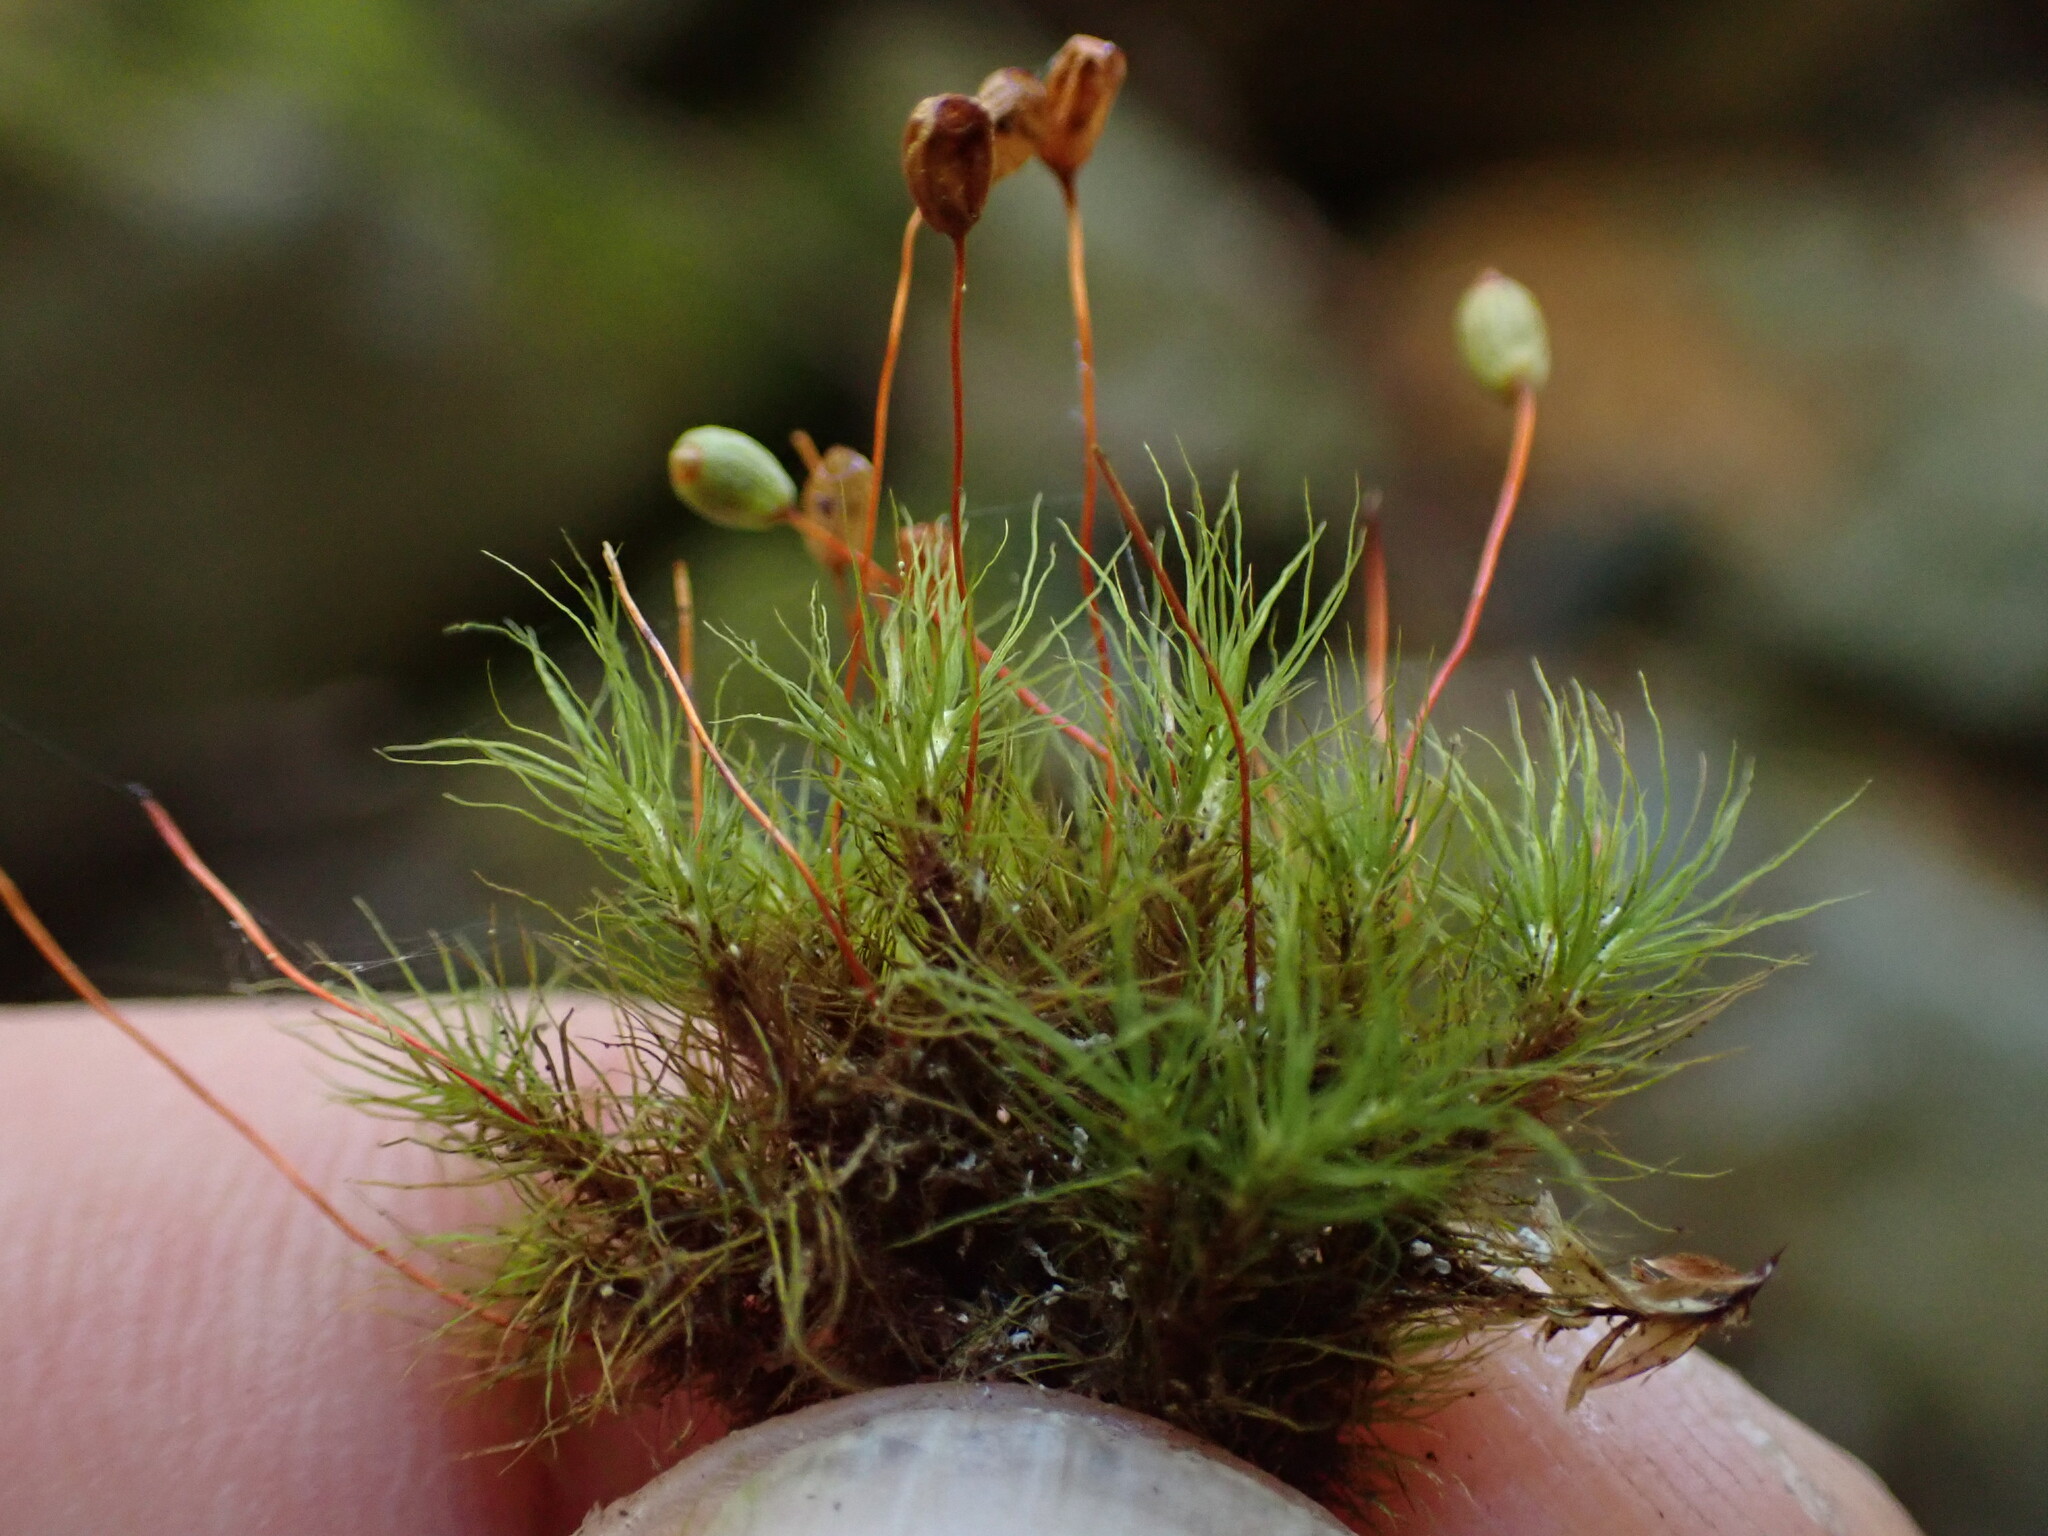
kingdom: Plantae
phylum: Bryophyta
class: Bryopsida
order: Bartramiales
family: Bartramiaceae
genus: Bartramia
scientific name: Bartramia ithyphylla
